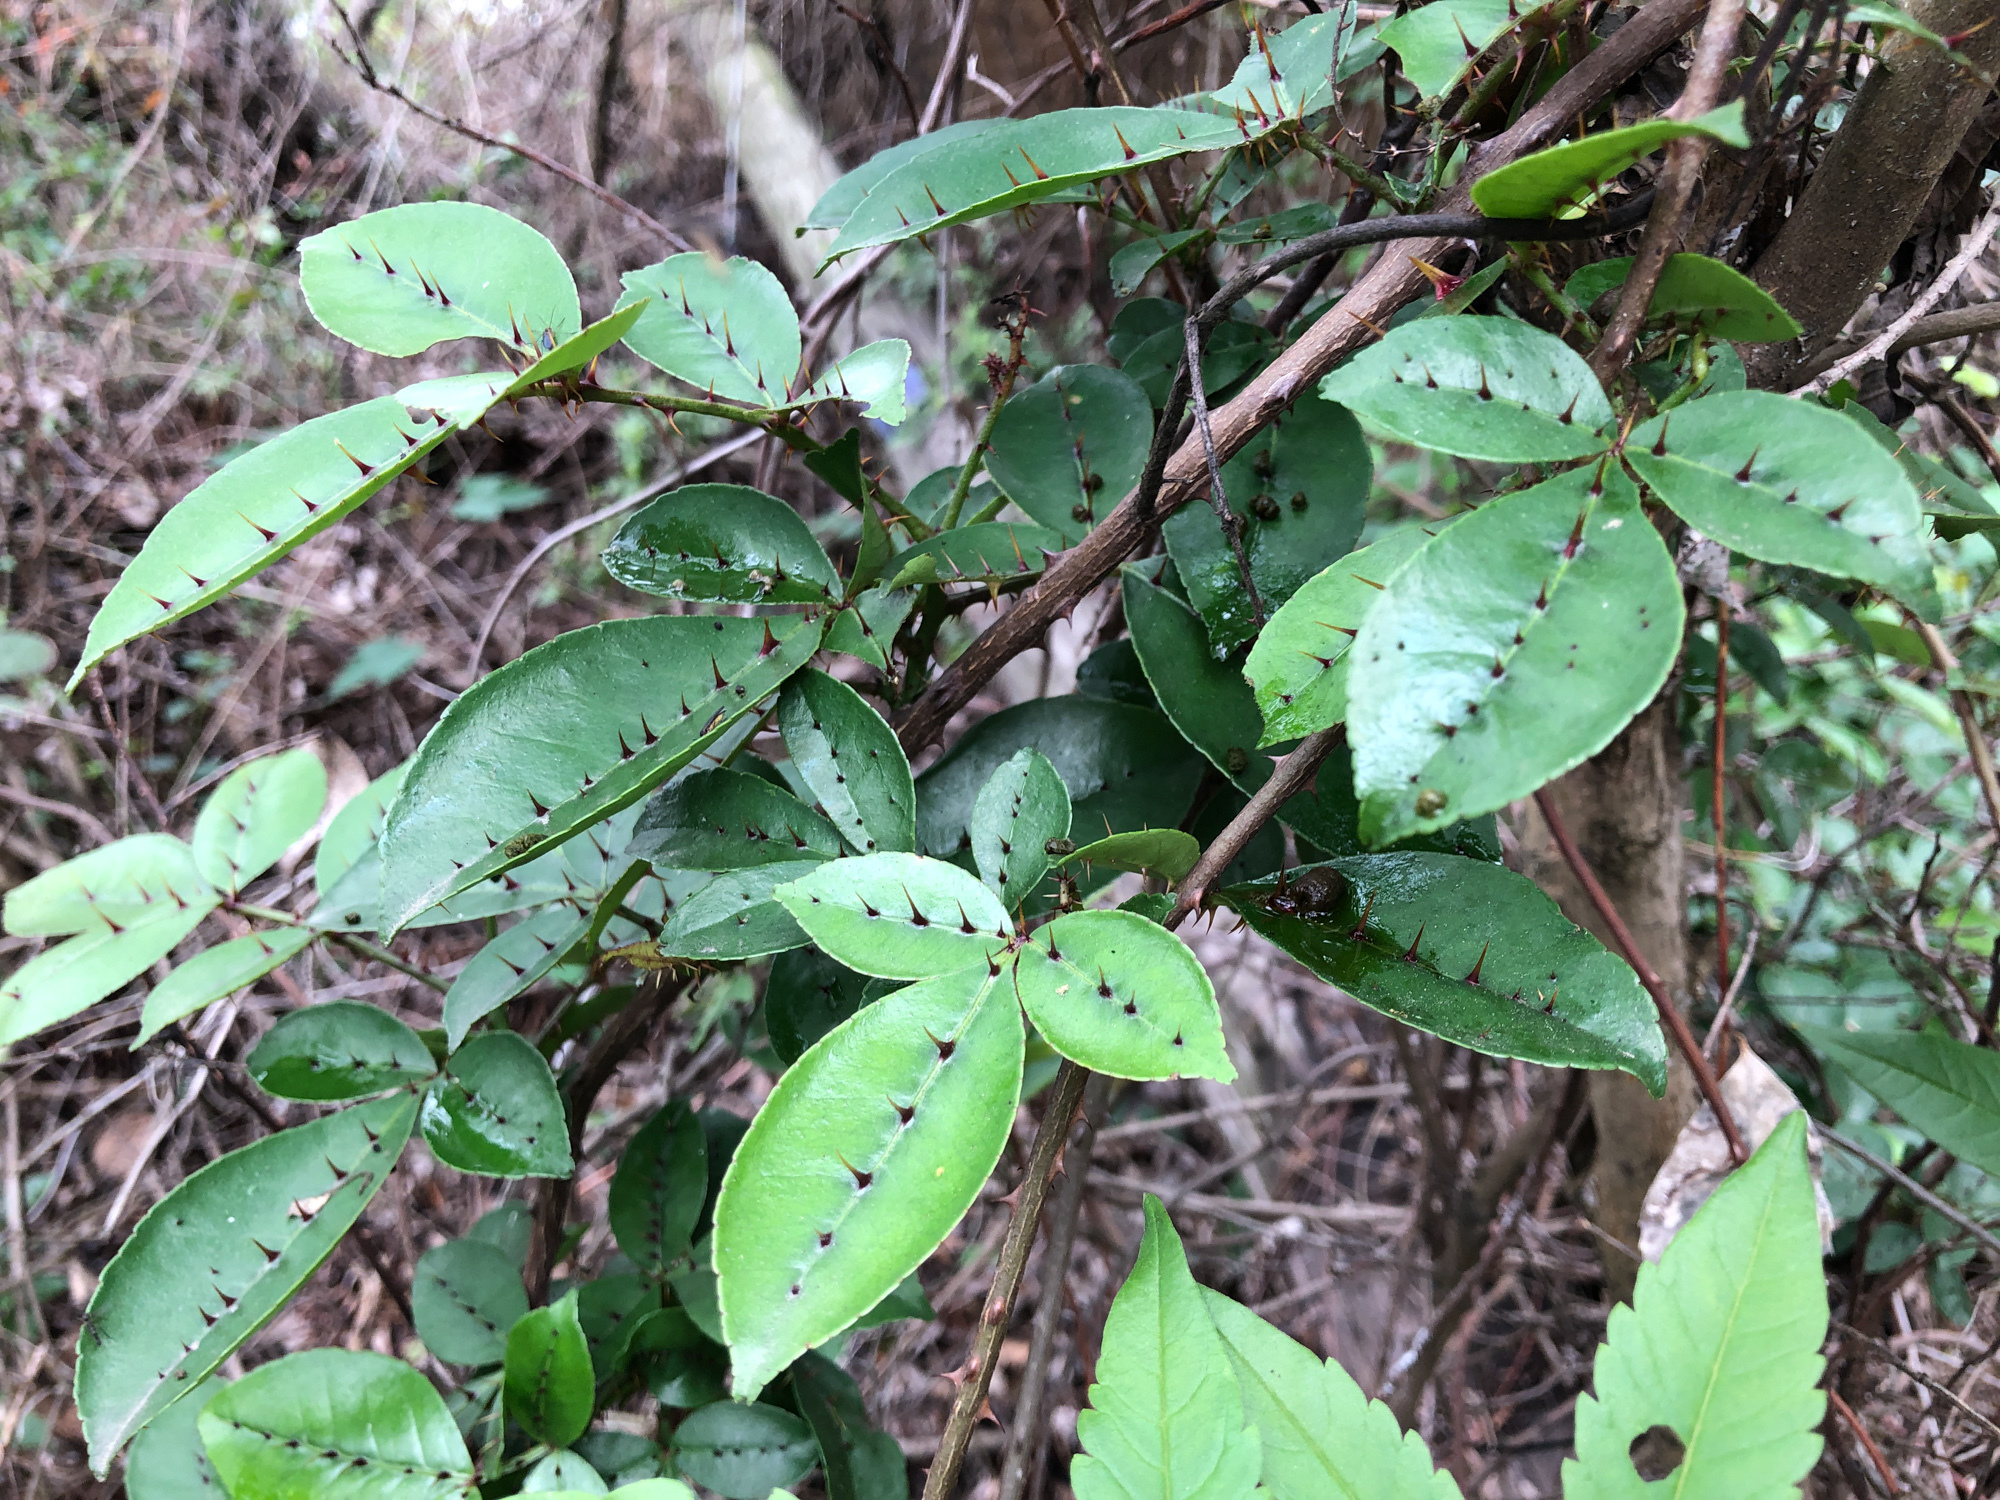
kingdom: Plantae
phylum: Tracheophyta
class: Magnoliopsida
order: Sapindales
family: Rutaceae
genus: Zanthoxylum
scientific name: Zanthoxylum nitidum
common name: Shiny-leaf prickly-ash
